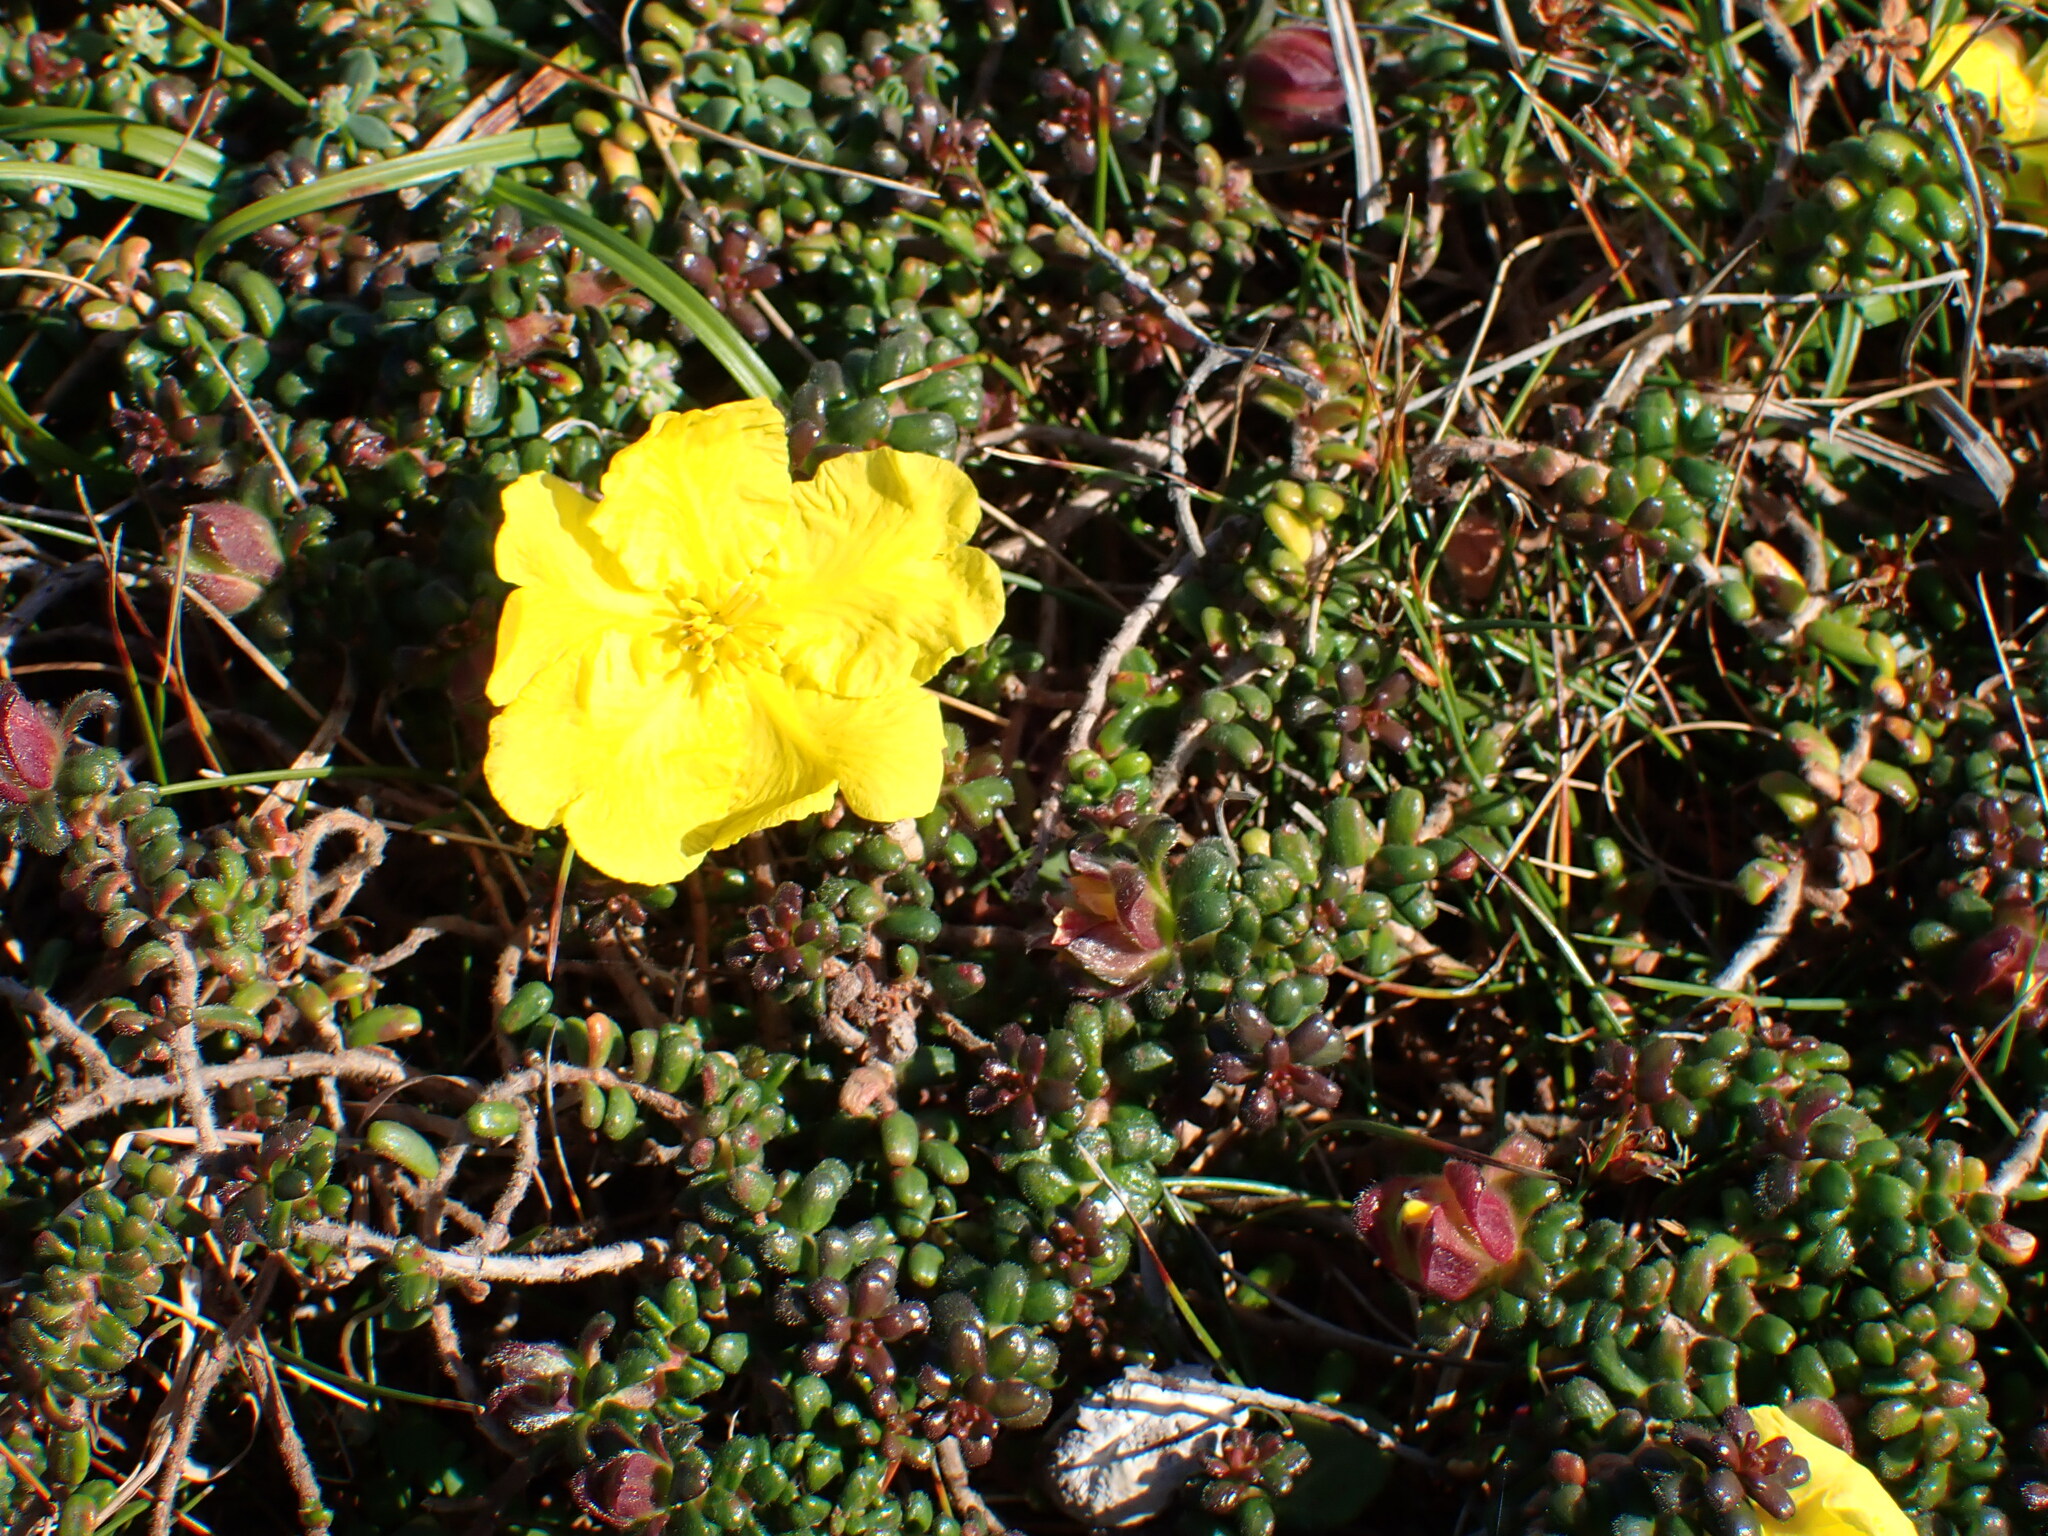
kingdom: Plantae
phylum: Tracheophyta
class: Magnoliopsida
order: Dilleniales
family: Dilleniaceae
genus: Hibbertia
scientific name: Hibbertia vestita
